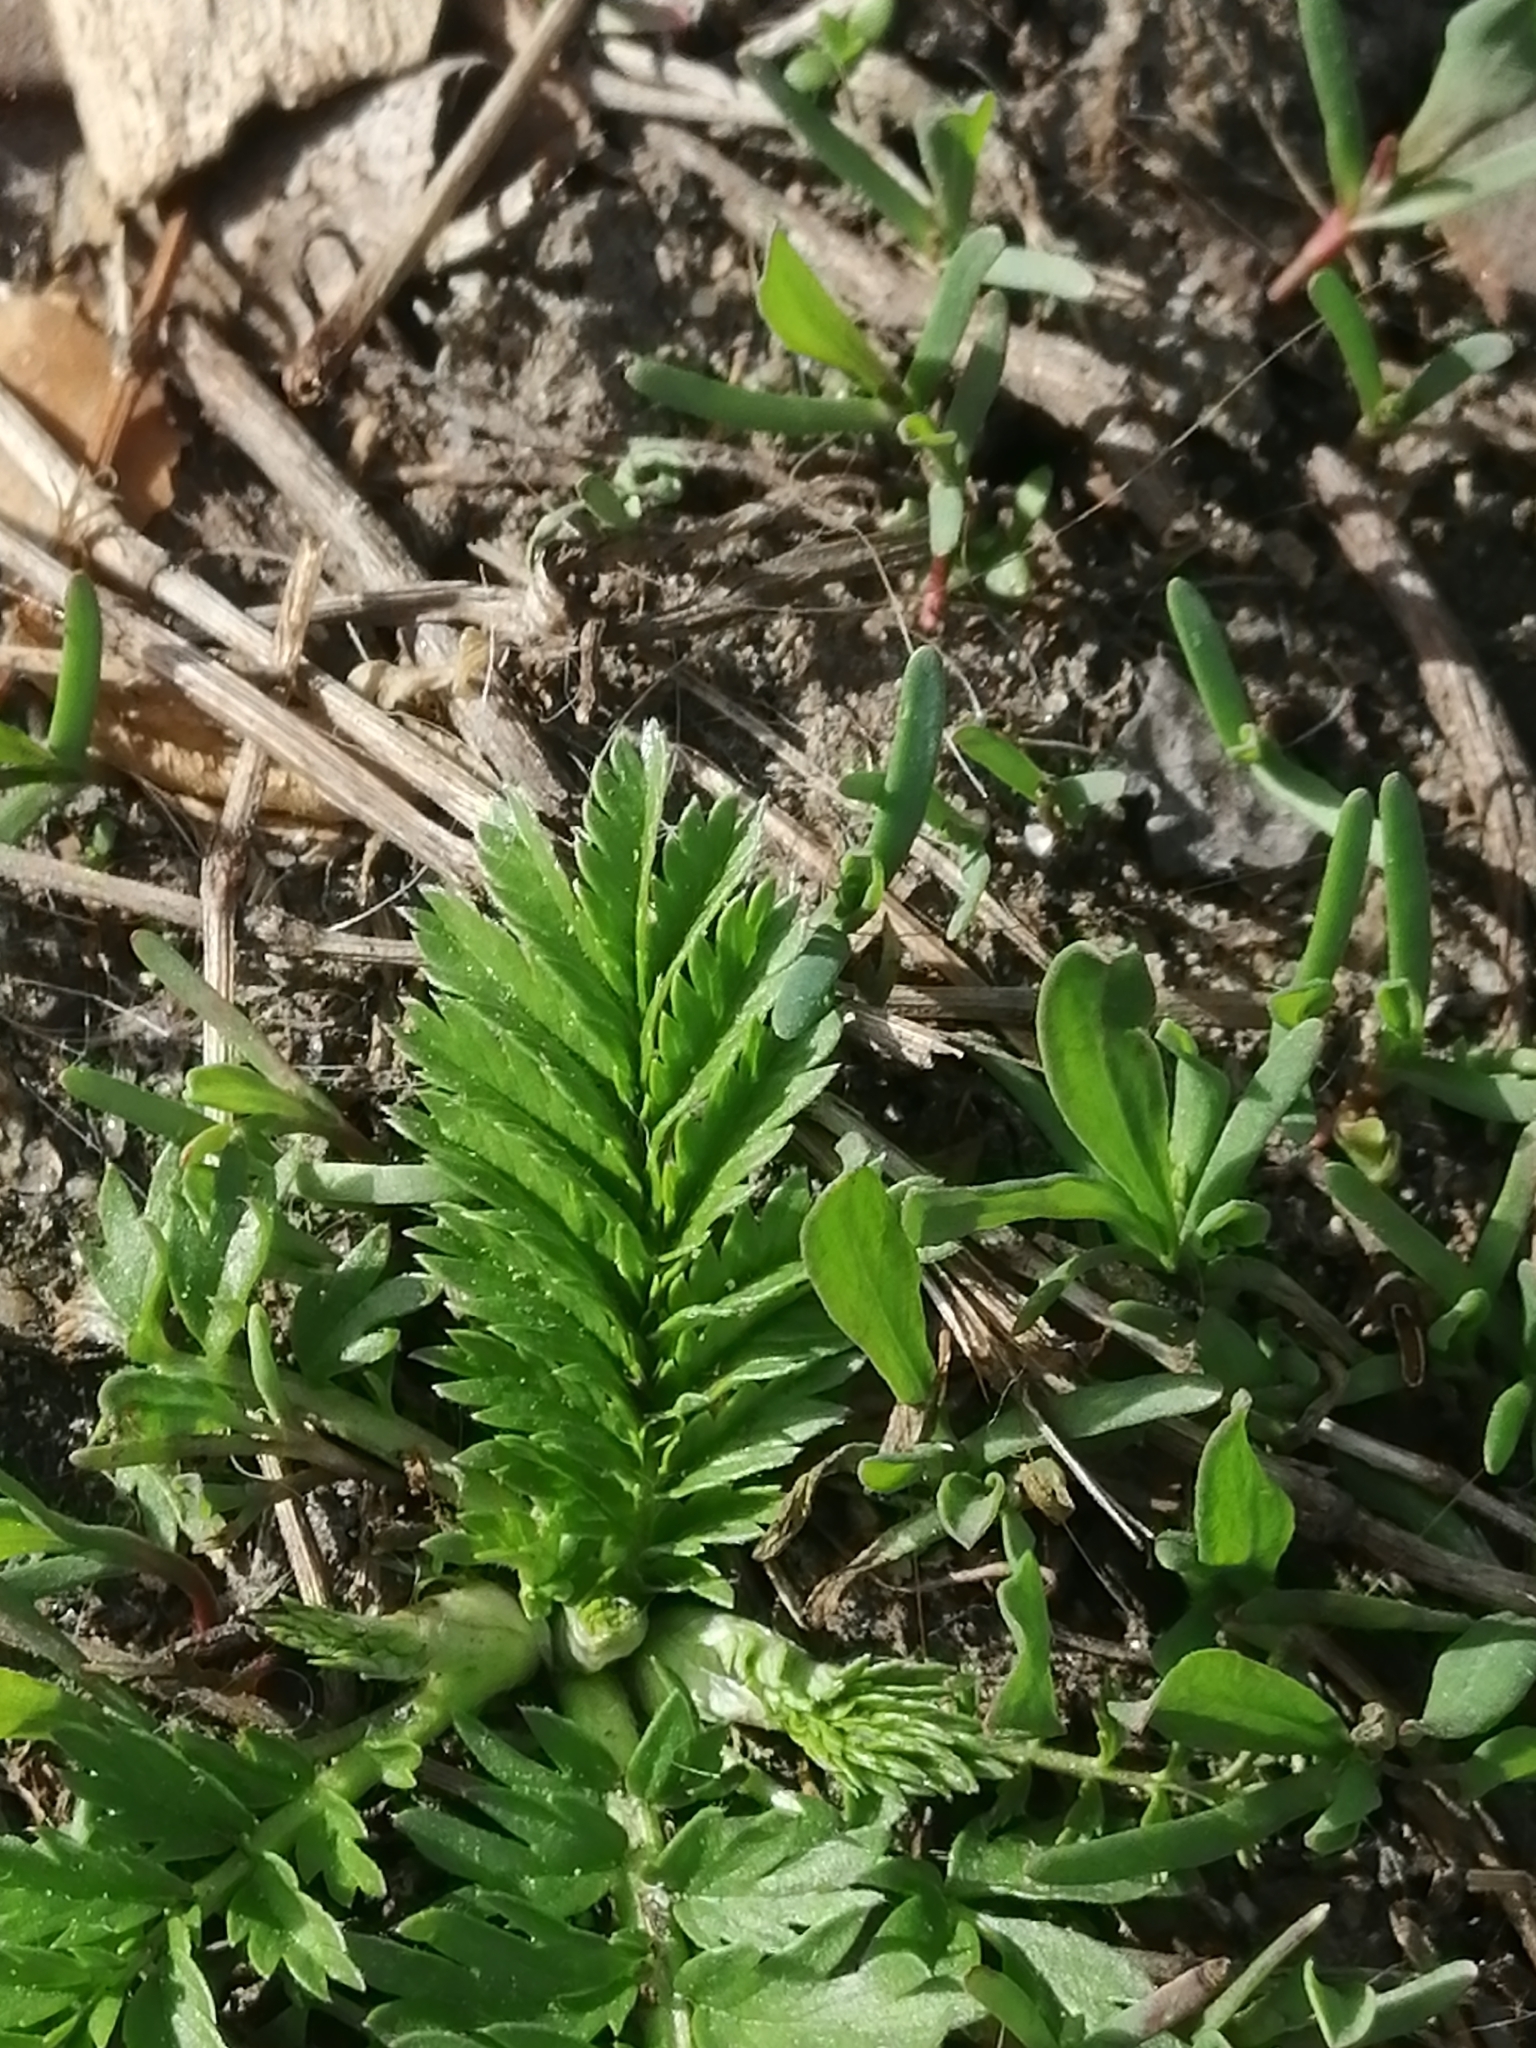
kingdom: Plantae
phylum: Tracheophyta
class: Magnoliopsida
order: Rosales
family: Rosaceae
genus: Argentina
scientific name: Argentina anserina
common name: Common silverweed
